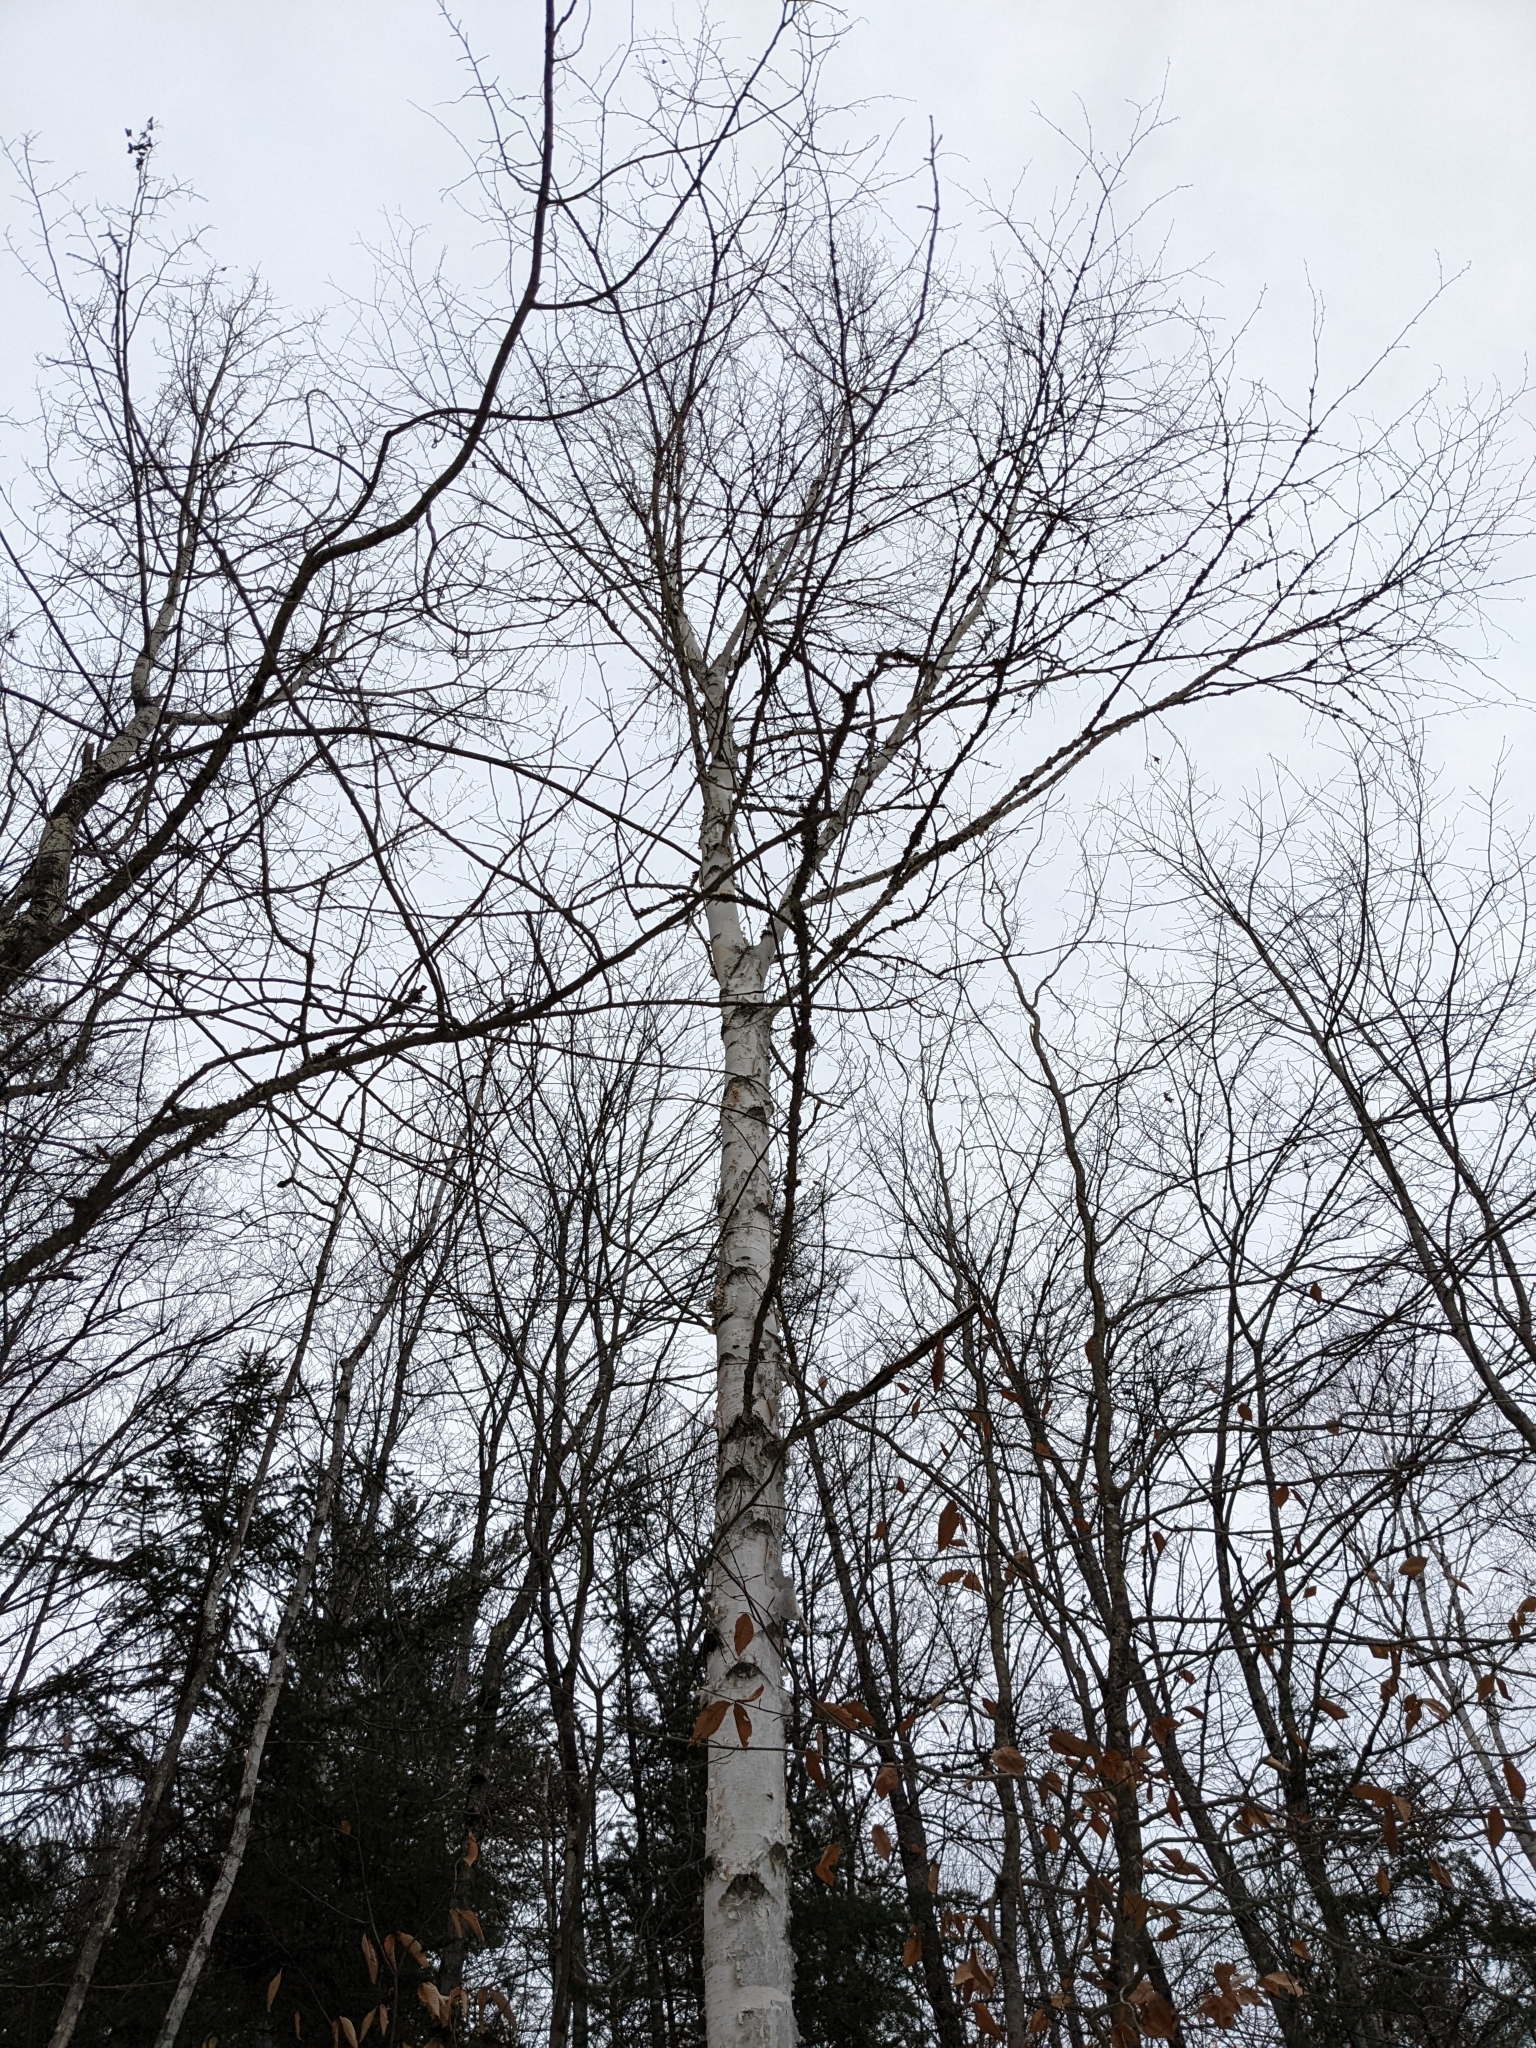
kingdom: Plantae
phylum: Tracheophyta
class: Magnoliopsida
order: Fagales
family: Betulaceae
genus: Betula
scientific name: Betula papyrifera
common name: Paper birch
